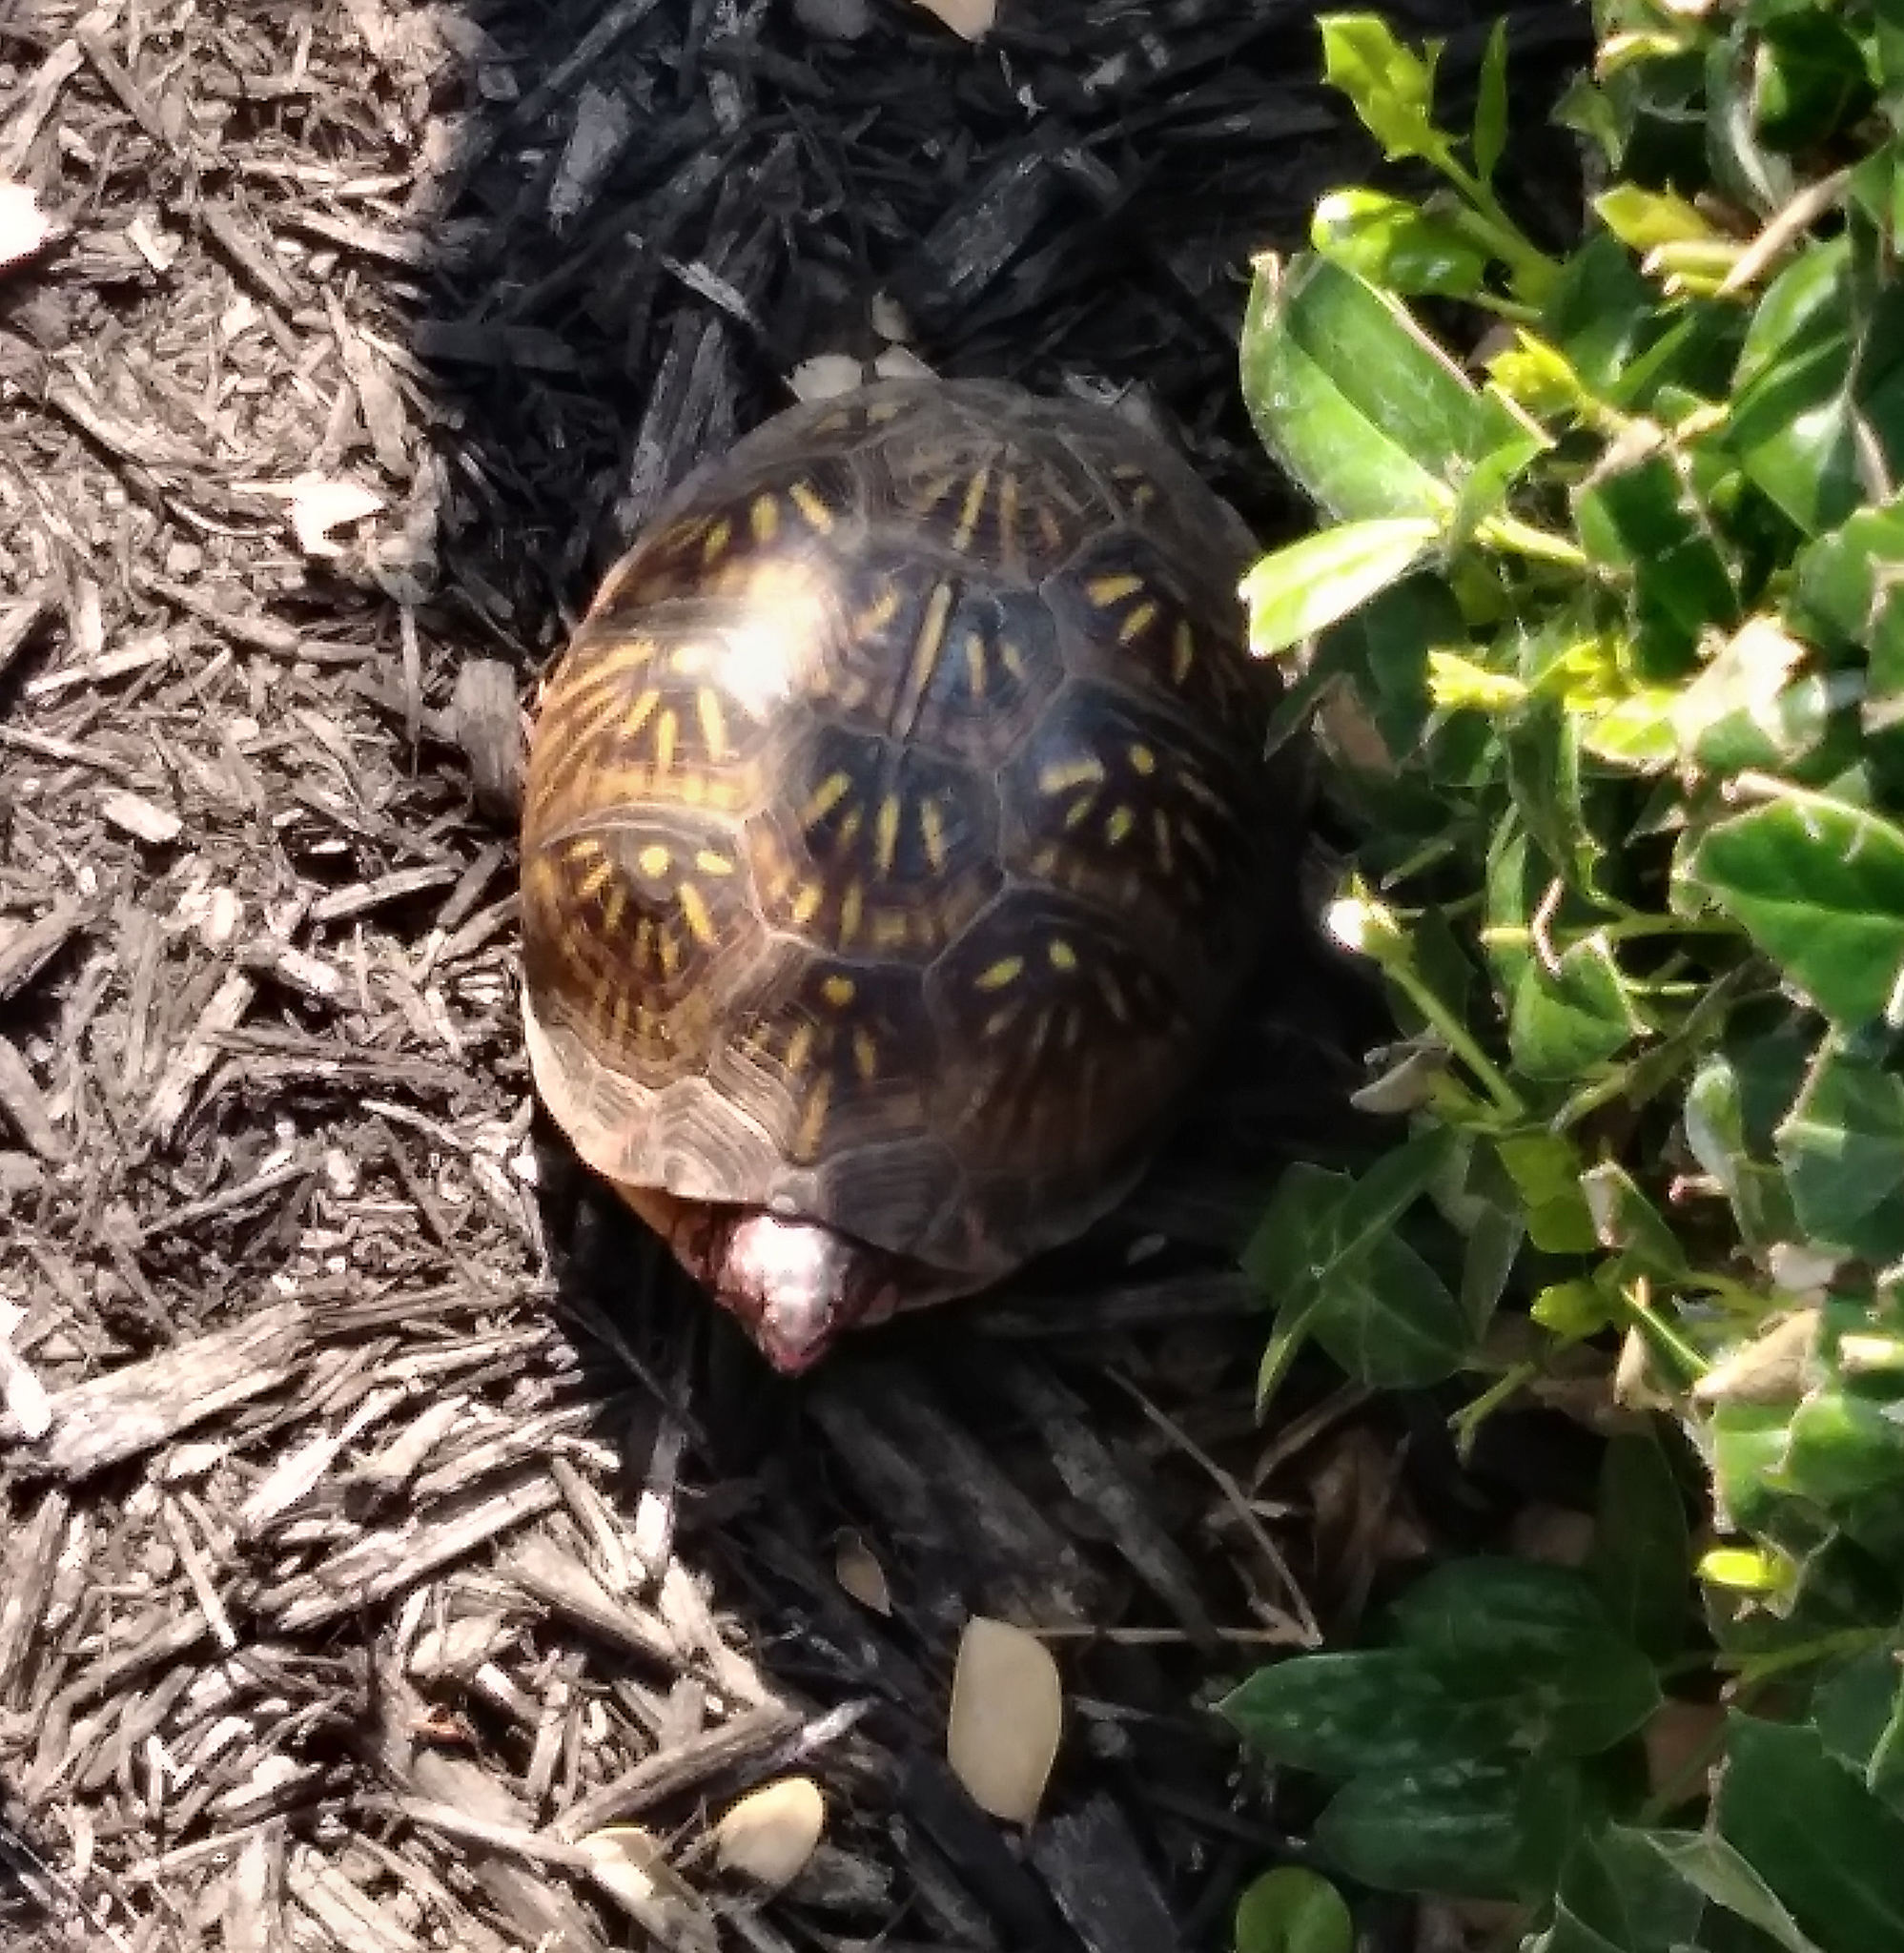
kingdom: Animalia
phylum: Chordata
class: Testudines
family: Emydidae
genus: Terrapene
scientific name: Terrapene carolina
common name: Common box turtle
